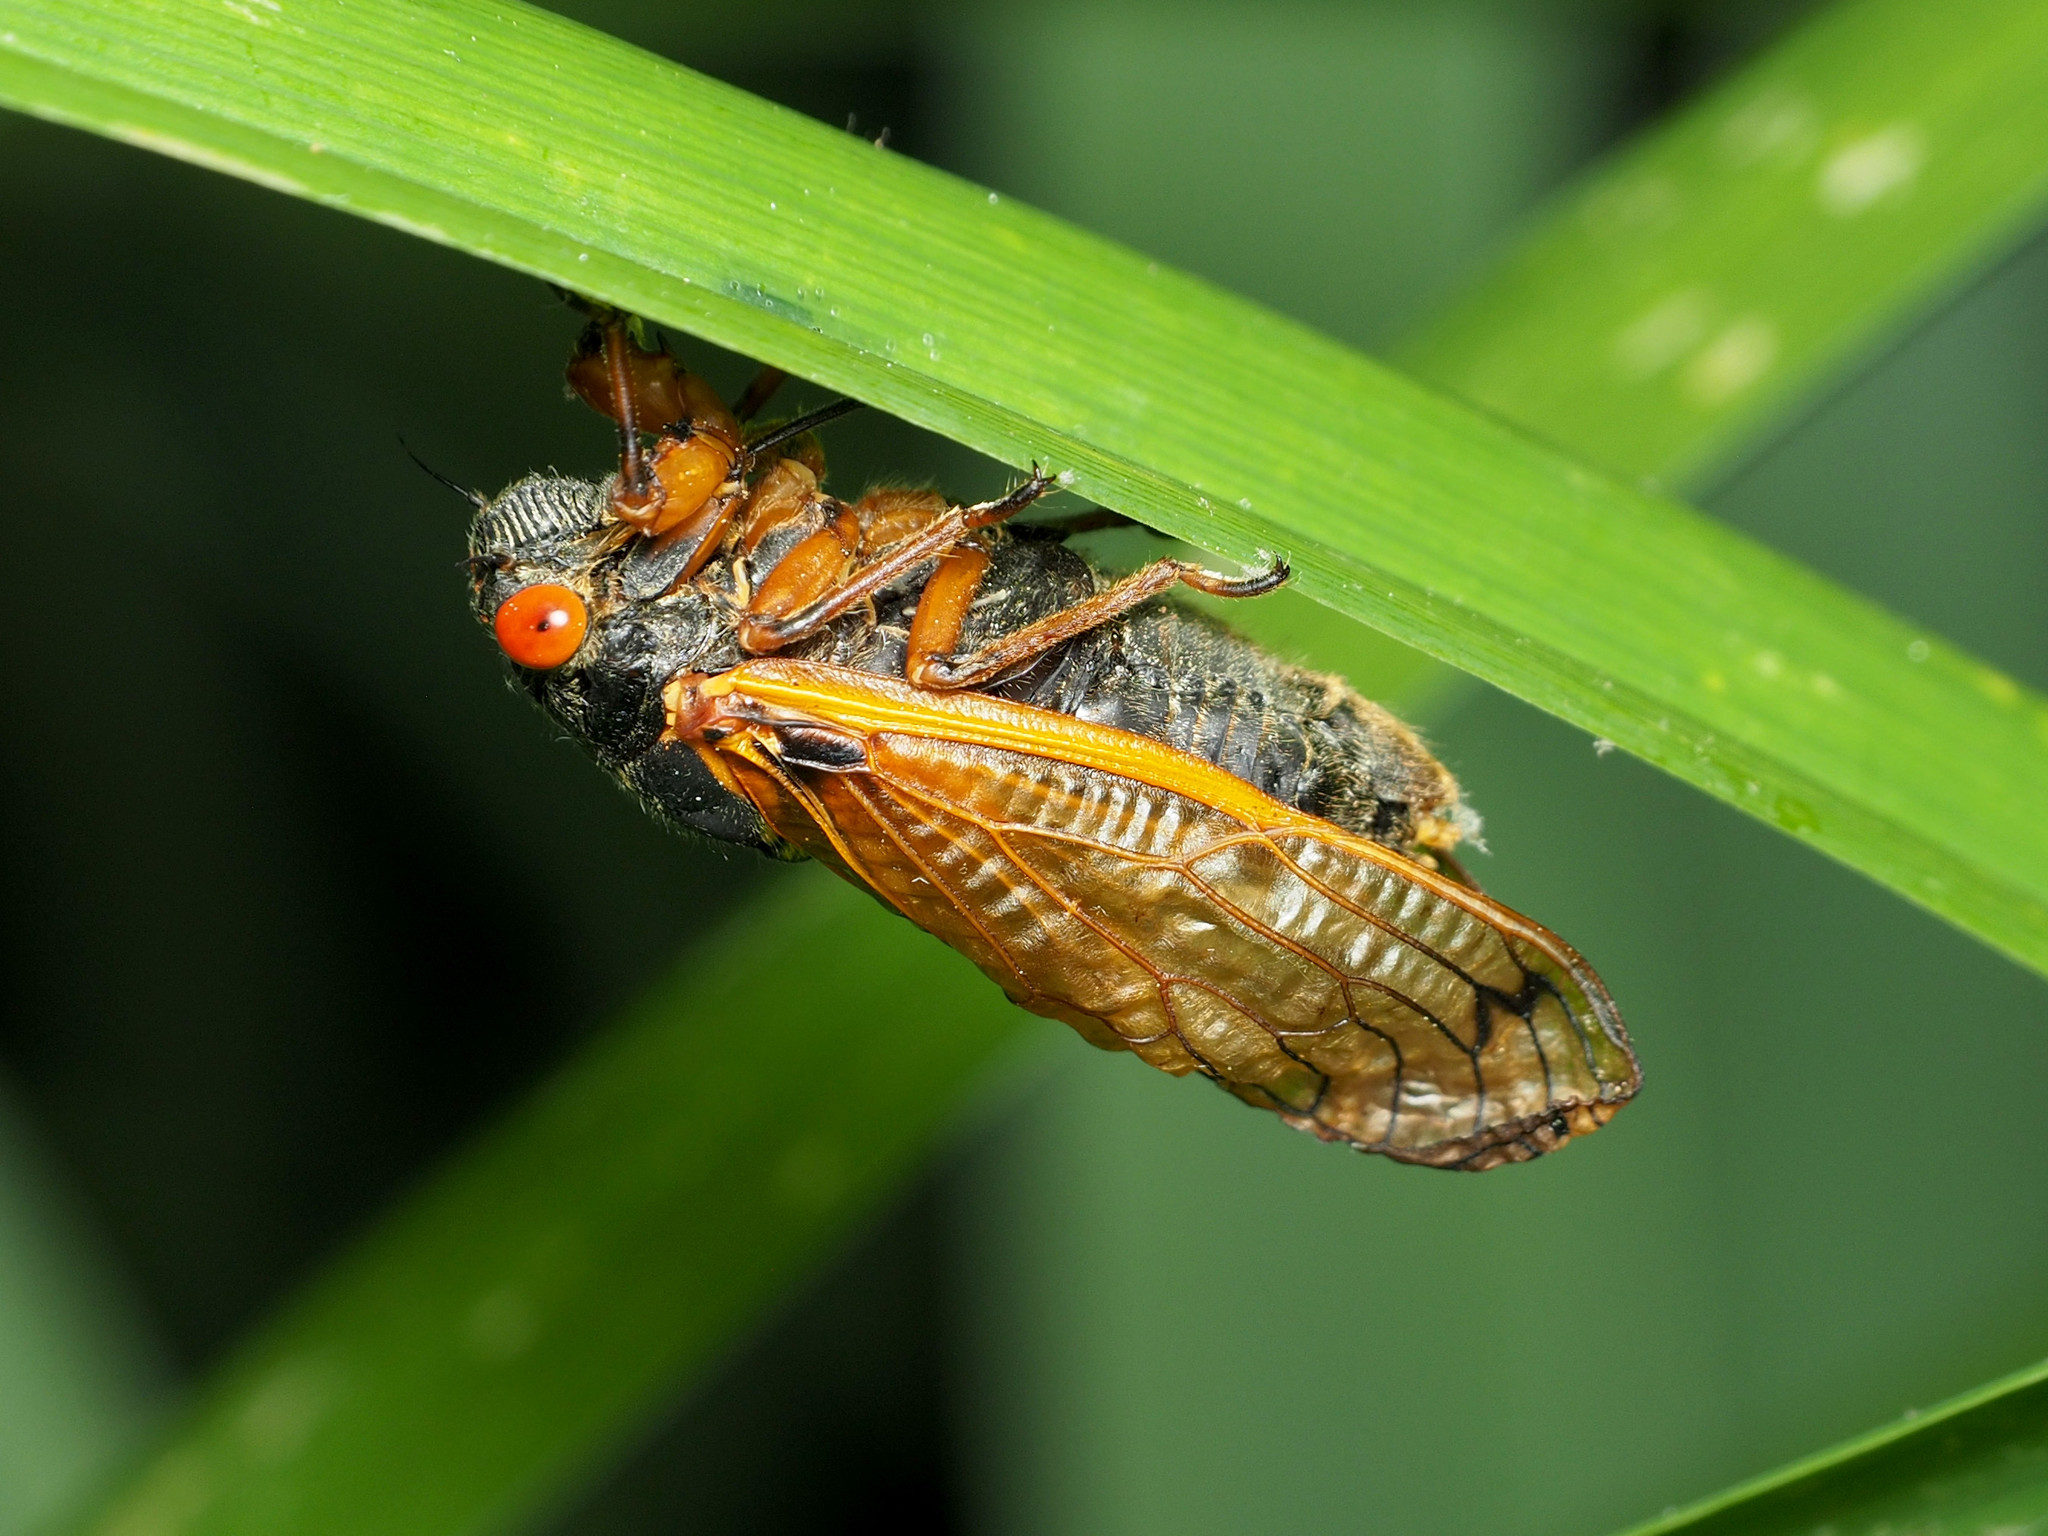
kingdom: Animalia
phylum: Arthropoda
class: Insecta
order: Hemiptera
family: Cicadidae
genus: Magicicada
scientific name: Magicicada cassini
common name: Cassin's 17-year cicada
